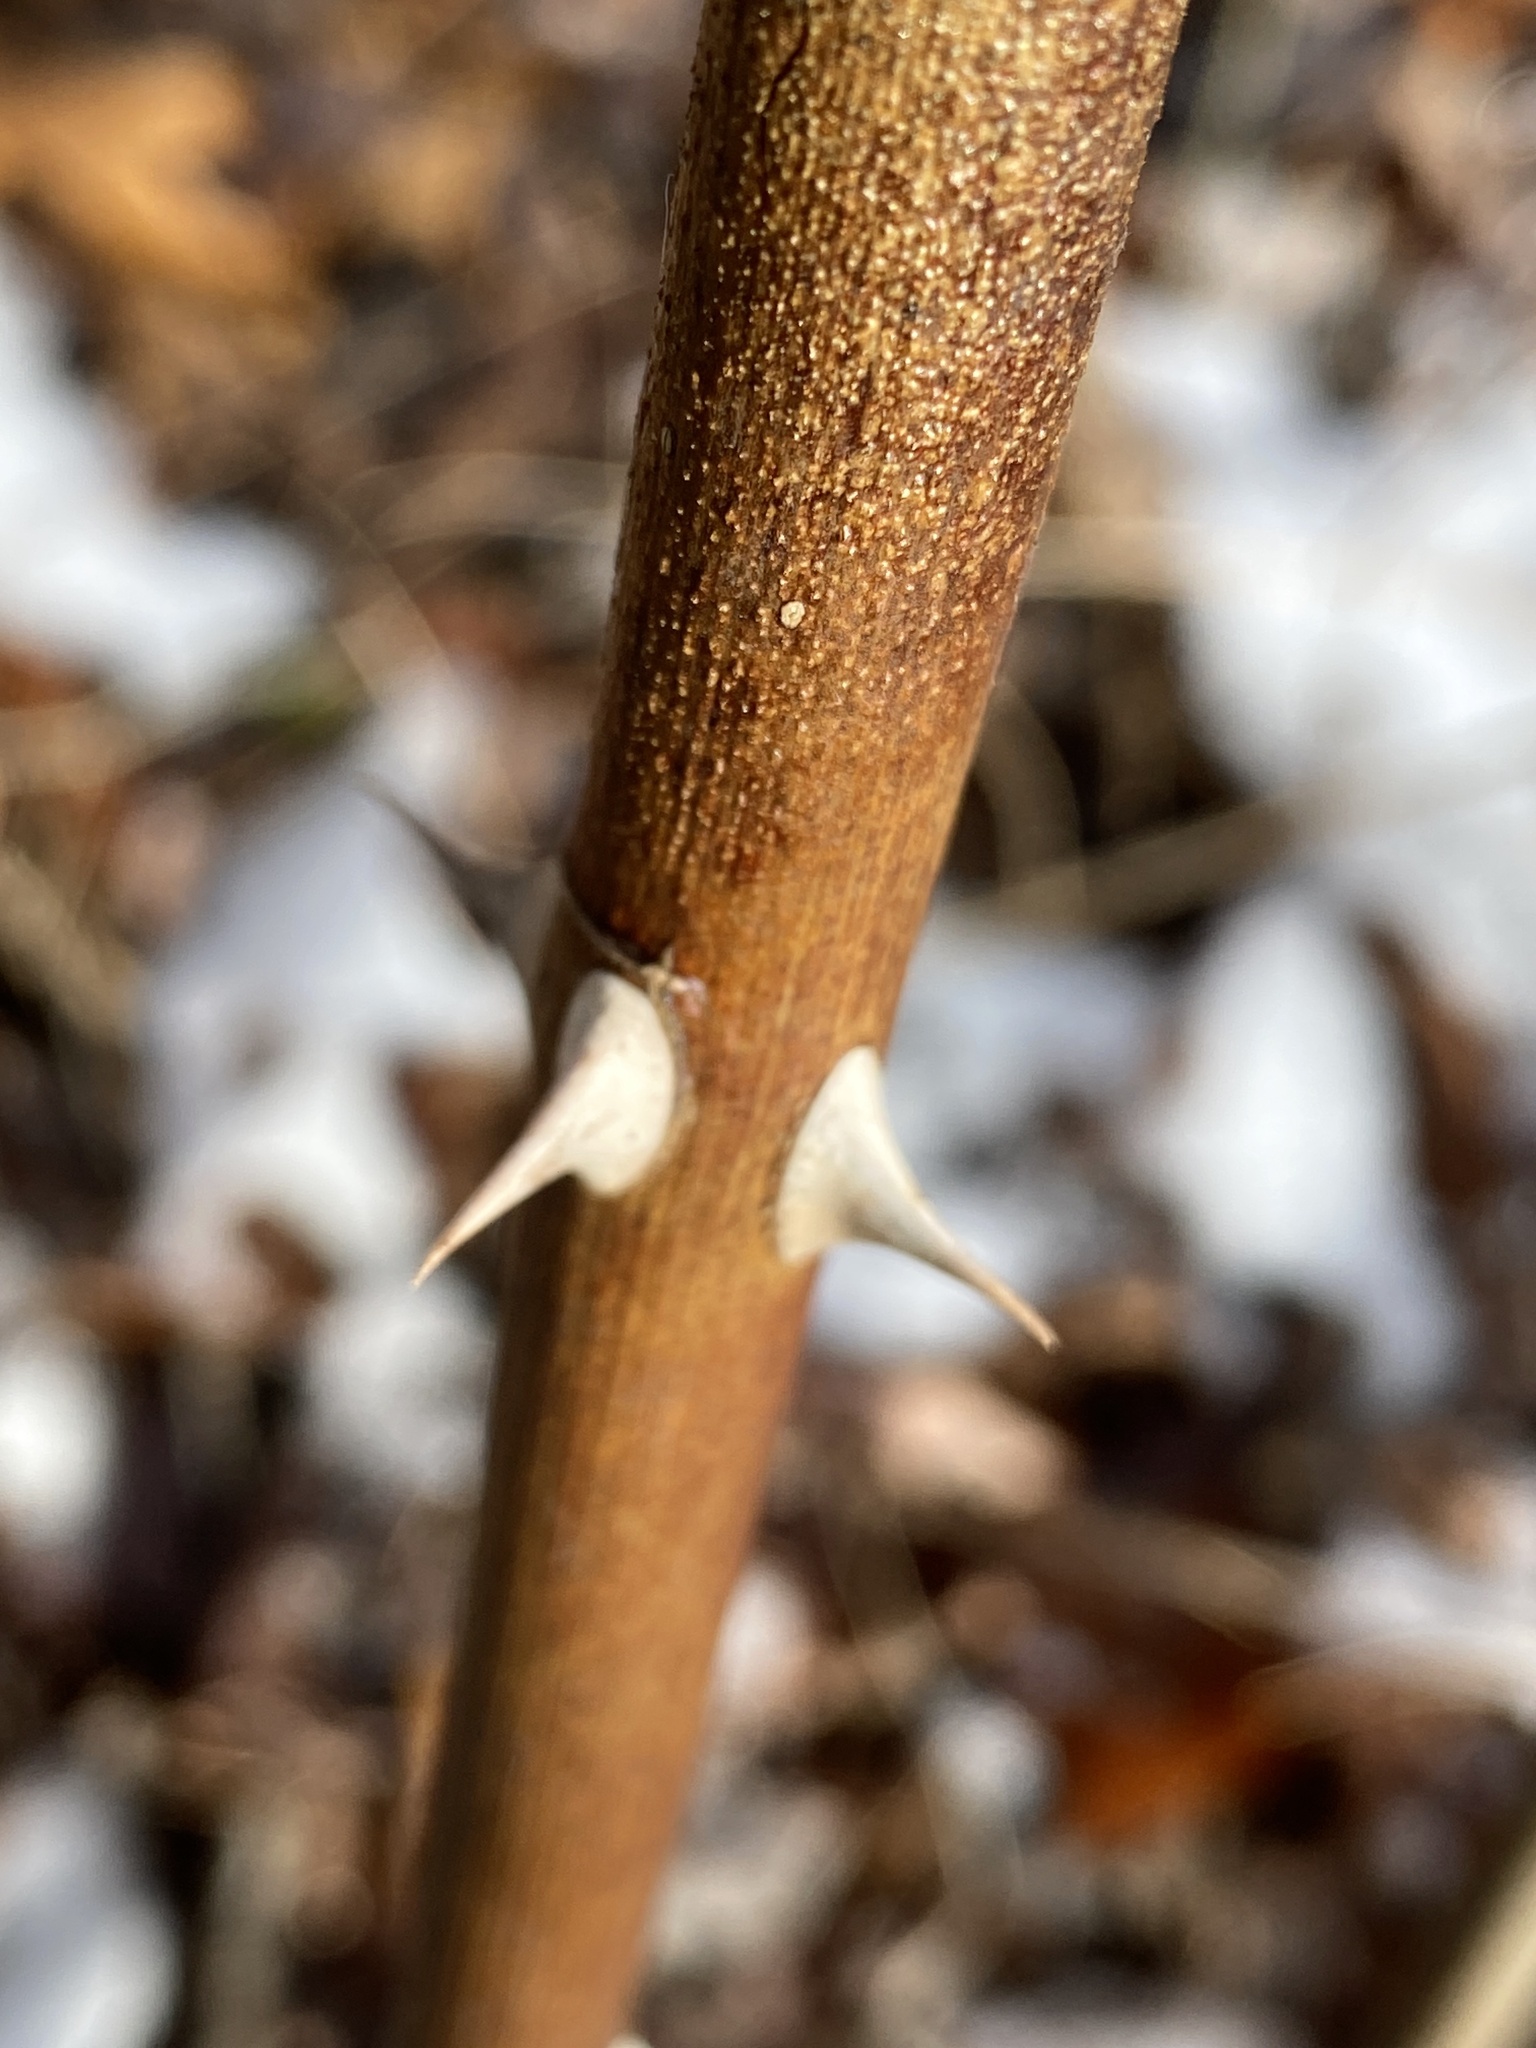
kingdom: Plantae
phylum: Tracheophyta
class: Magnoliopsida
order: Rosales
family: Rosaceae
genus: Rosa
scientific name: Rosa multiflora
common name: Multiflora rose
